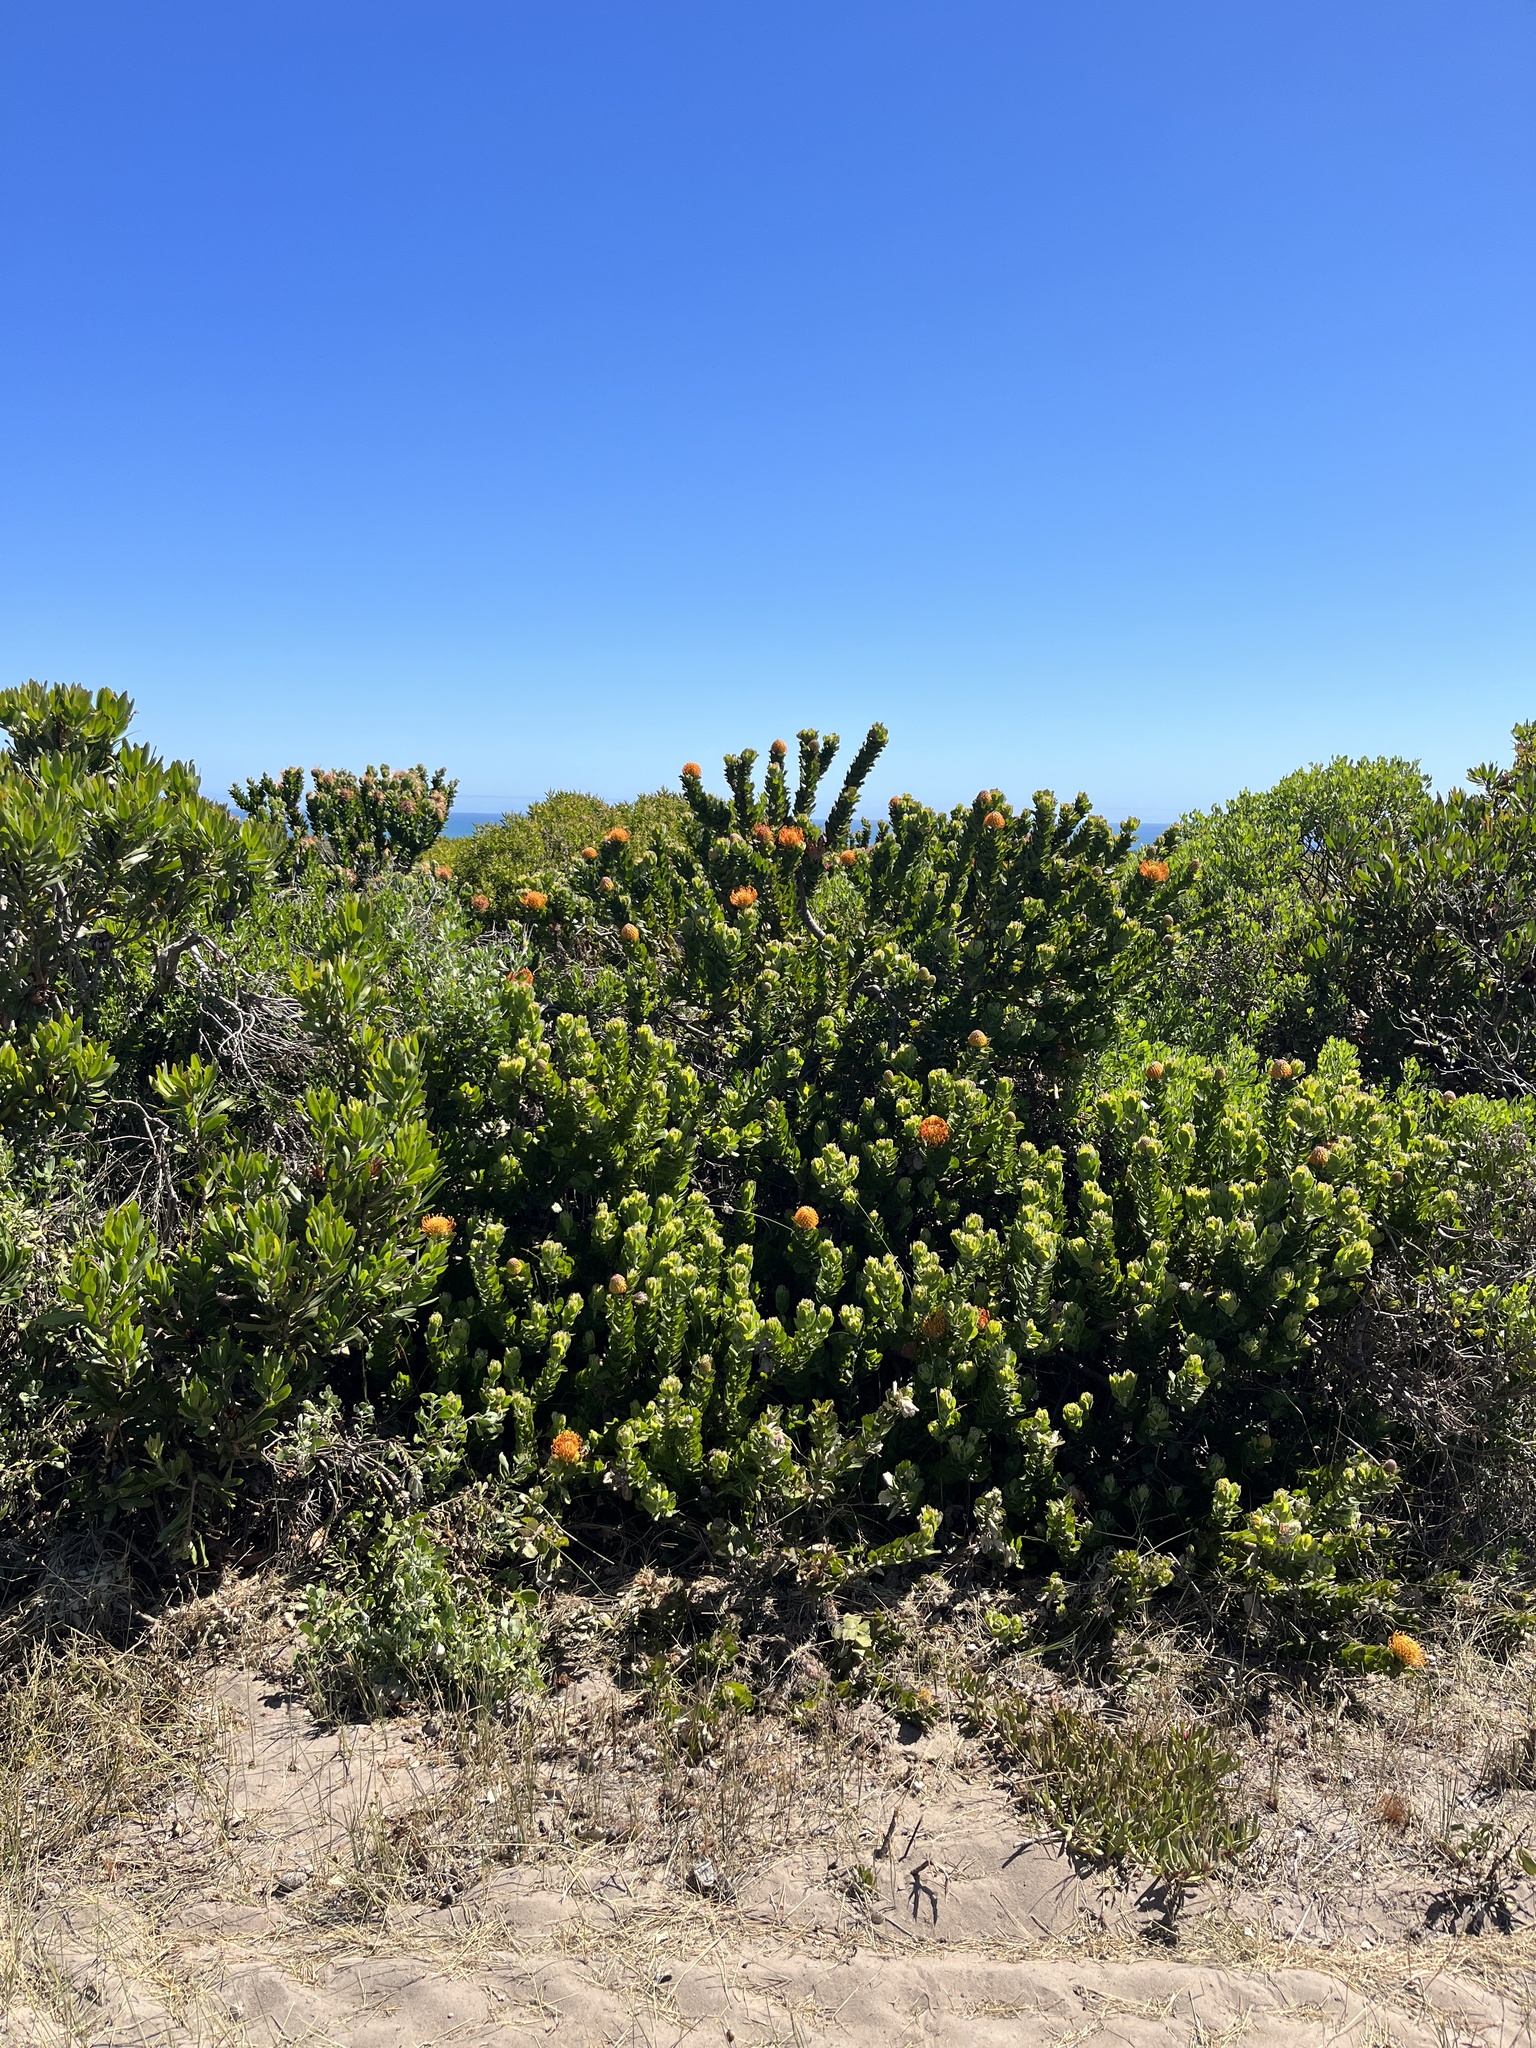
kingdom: Plantae
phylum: Tracheophyta
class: Magnoliopsida
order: Proteales
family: Proteaceae
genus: Leucospermum
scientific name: Leucospermum patersonii
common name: False tree pincushion
